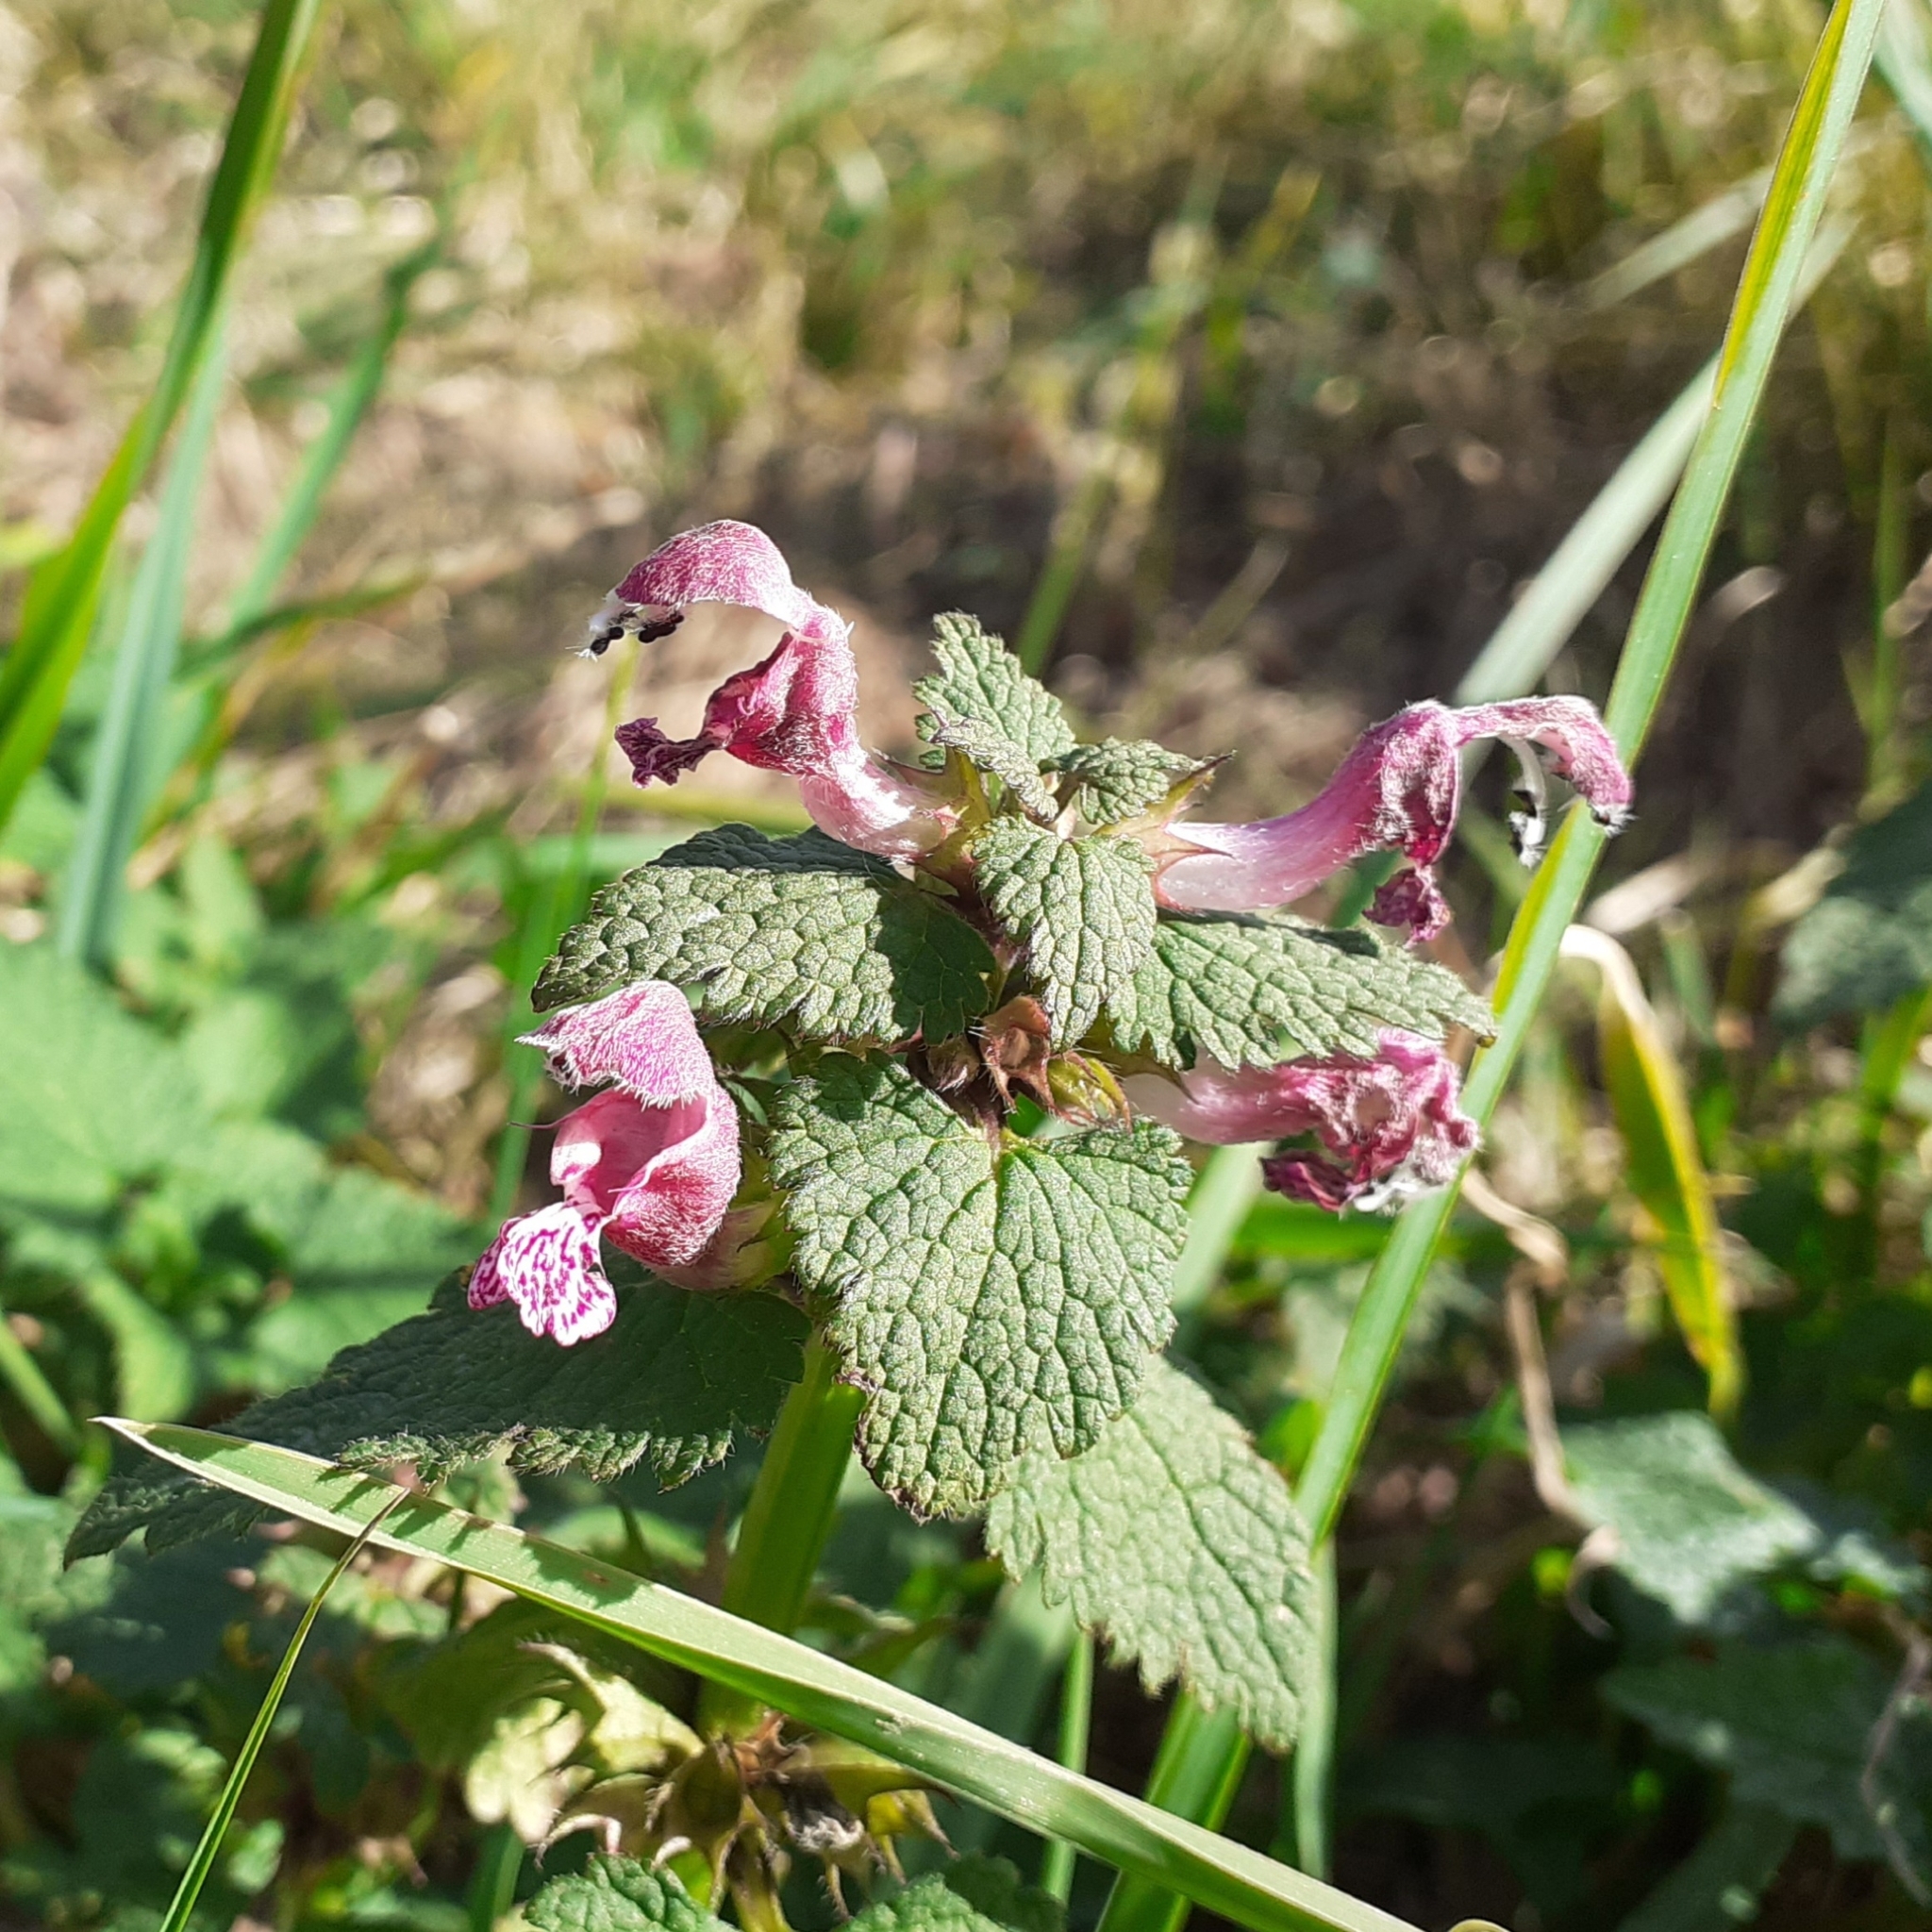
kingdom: Plantae
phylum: Tracheophyta
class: Magnoliopsida
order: Lamiales
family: Lamiaceae
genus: Lamium
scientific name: Lamium maculatum
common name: Spotted dead-nettle
